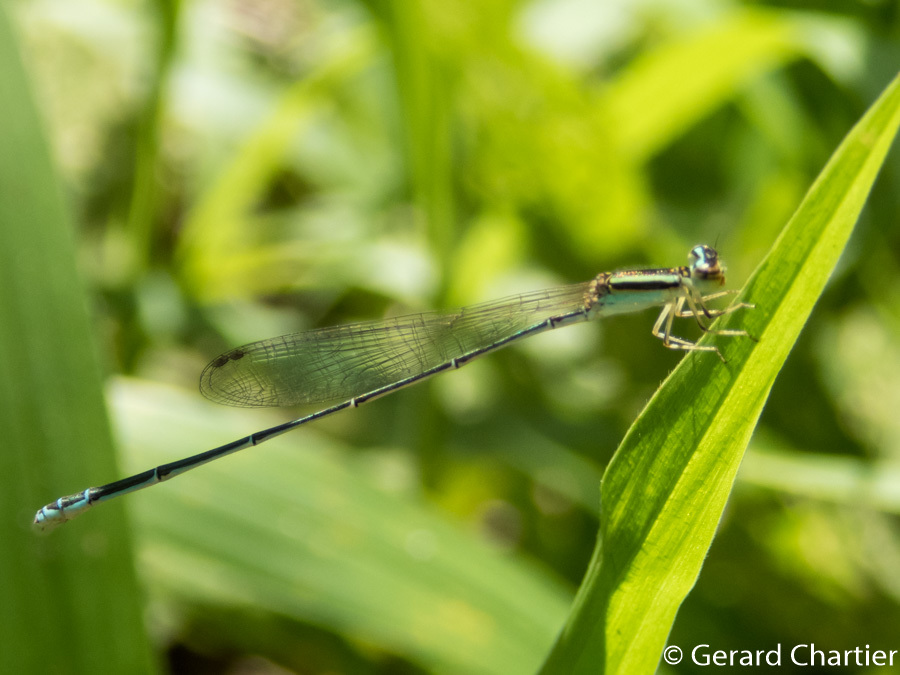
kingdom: Animalia
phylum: Arthropoda
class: Insecta
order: Odonata
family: Coenagrionidae
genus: Aciagrion
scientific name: Aciagrion borneense
